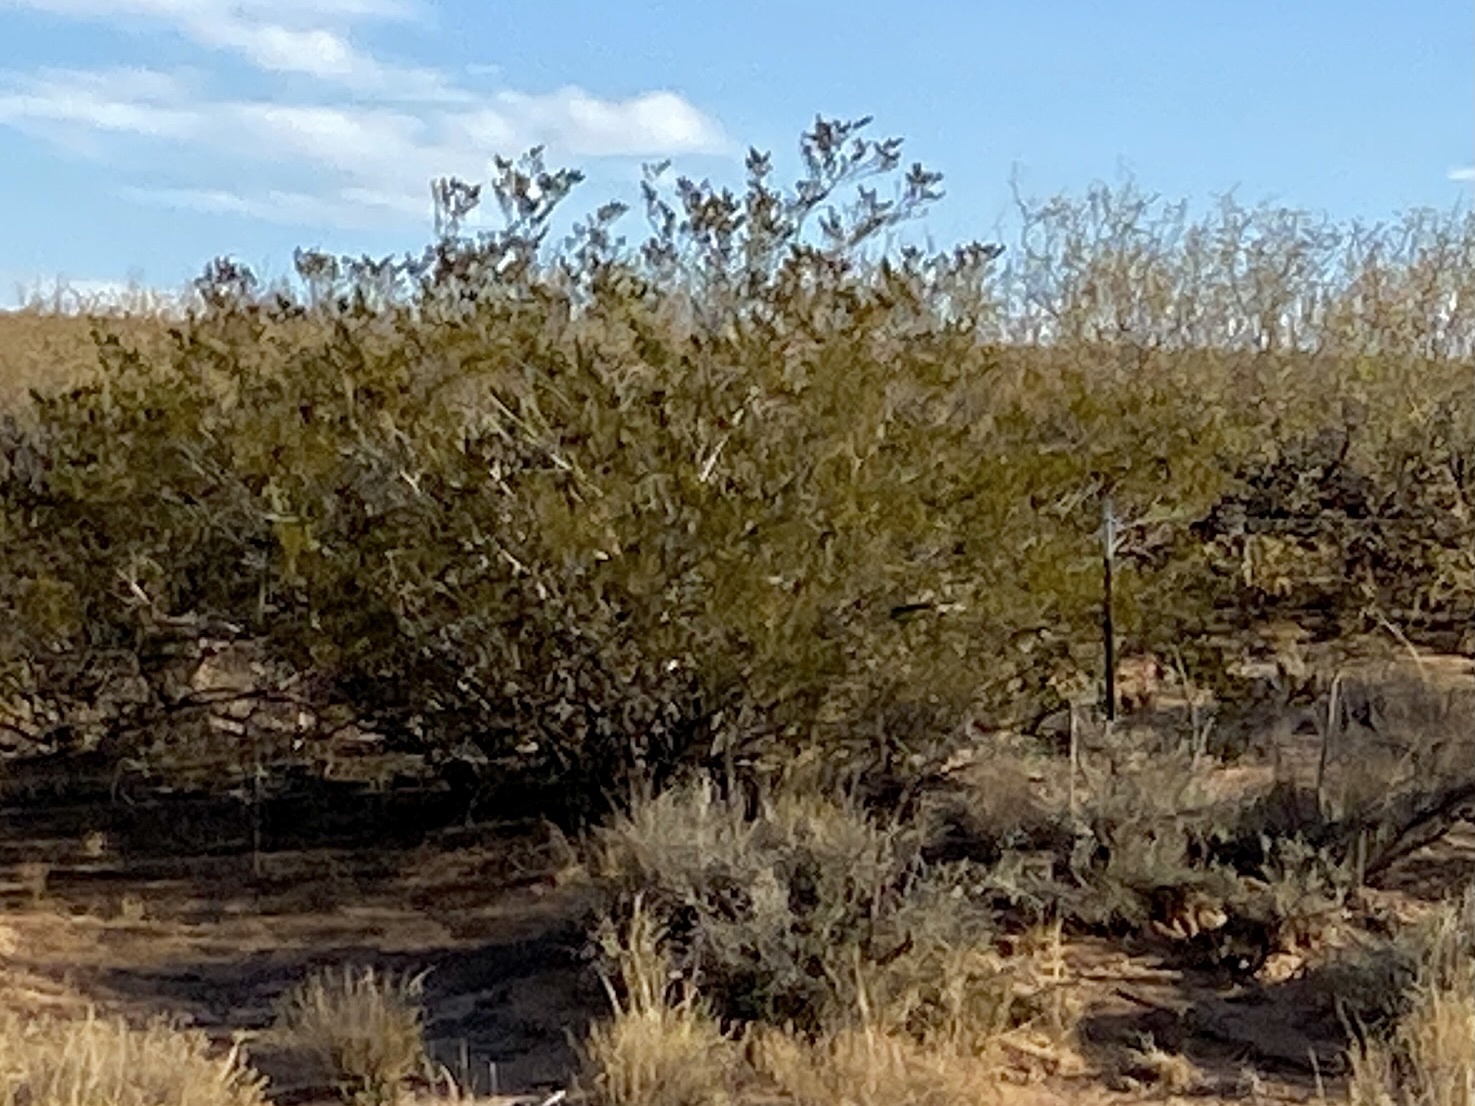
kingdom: Plantae
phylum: Tracheophyta
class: Magnoliopsida
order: Zygophyllales
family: Zygophyllaceae
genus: Larrea
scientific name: Larrea tridentata
